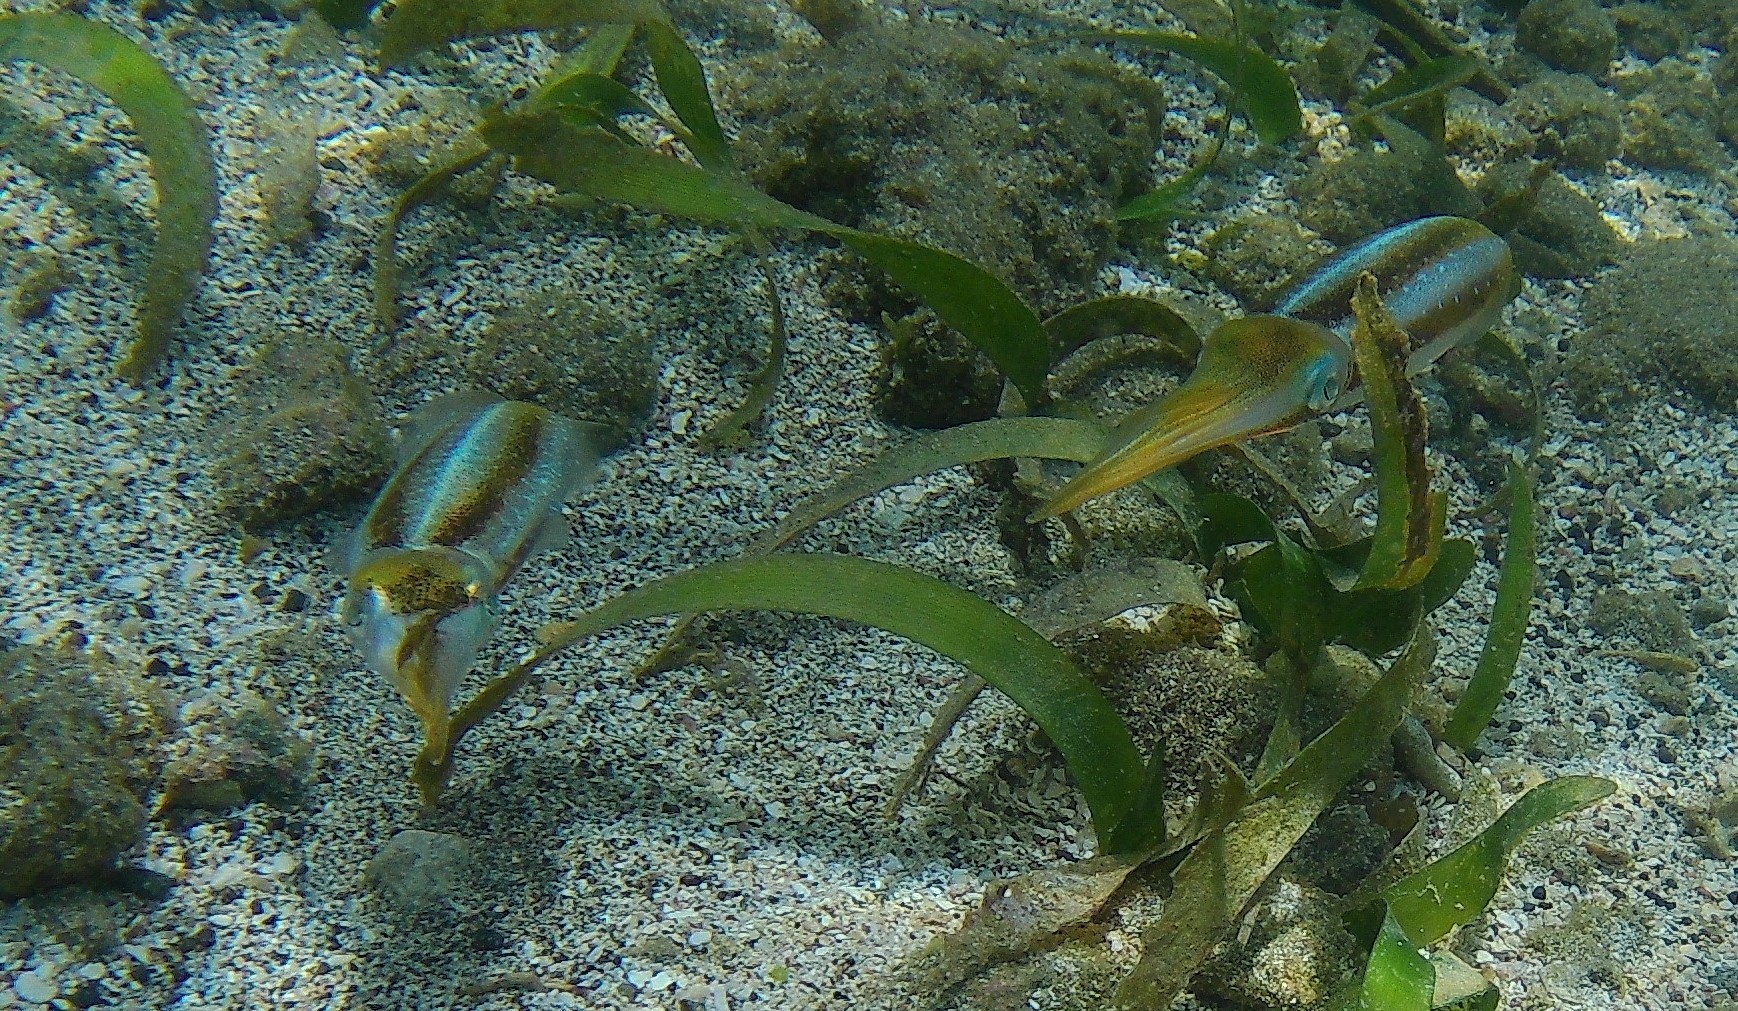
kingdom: Animalia
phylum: Mollusca
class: Cephalopoda
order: Myopsida
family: Loliginidae
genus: Sepioteuthis
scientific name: Sepioteuthis sepioidea
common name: Caribbean reef squid
